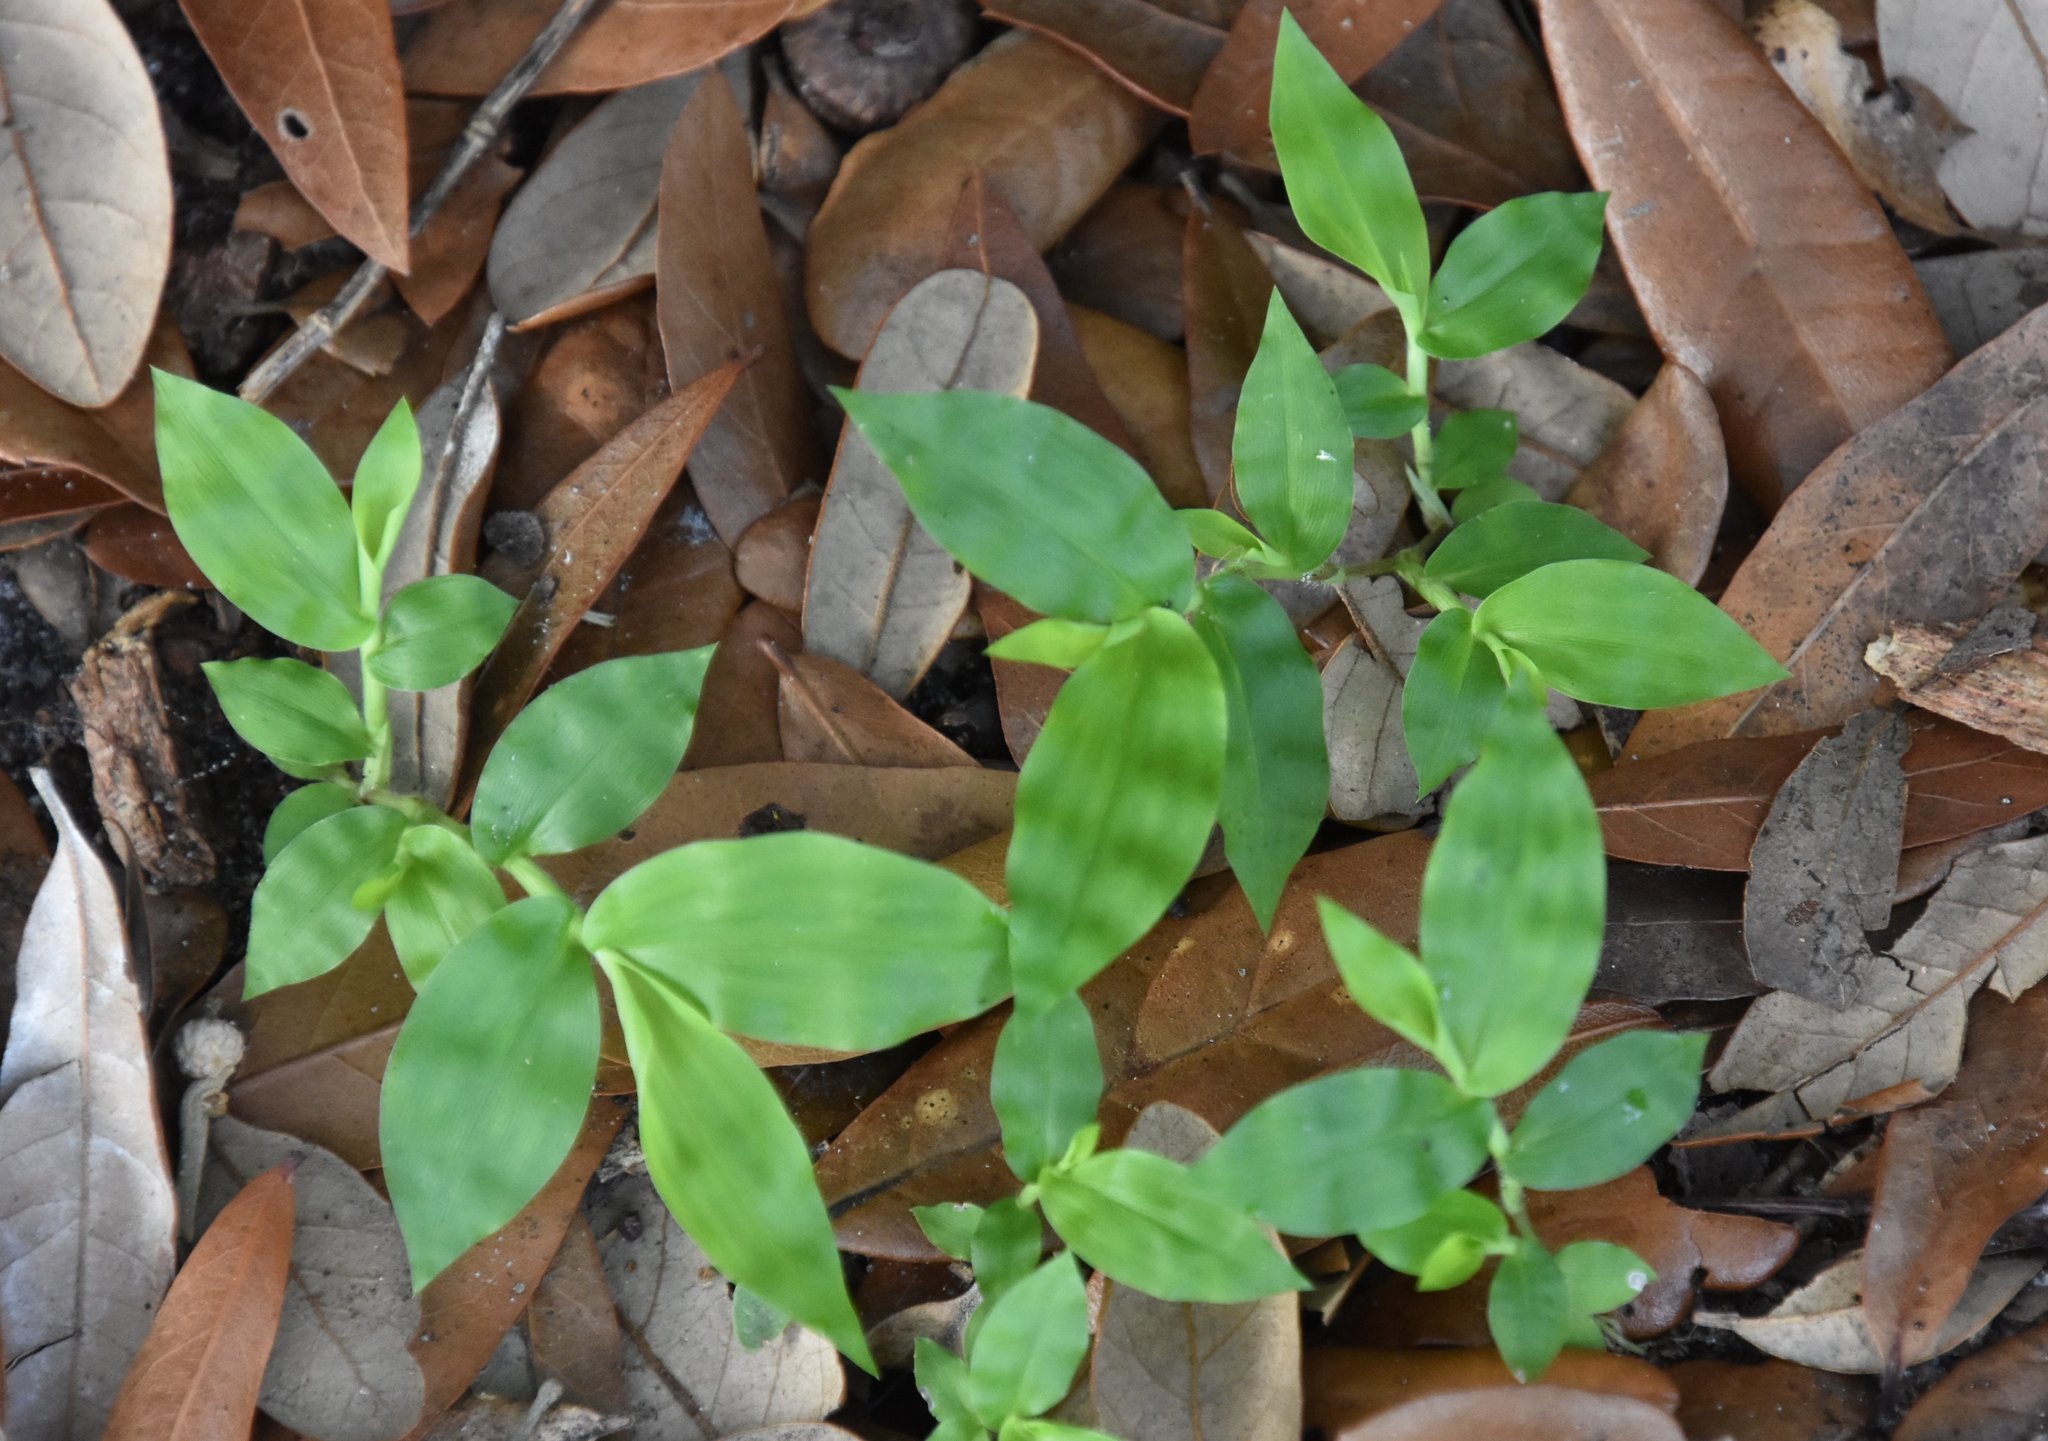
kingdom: Plantae
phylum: Tracheophyta
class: Liliopsida
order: Poales
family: Poaceae
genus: Oplismenus
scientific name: Oplismenus hirtellus
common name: Basketgrass
